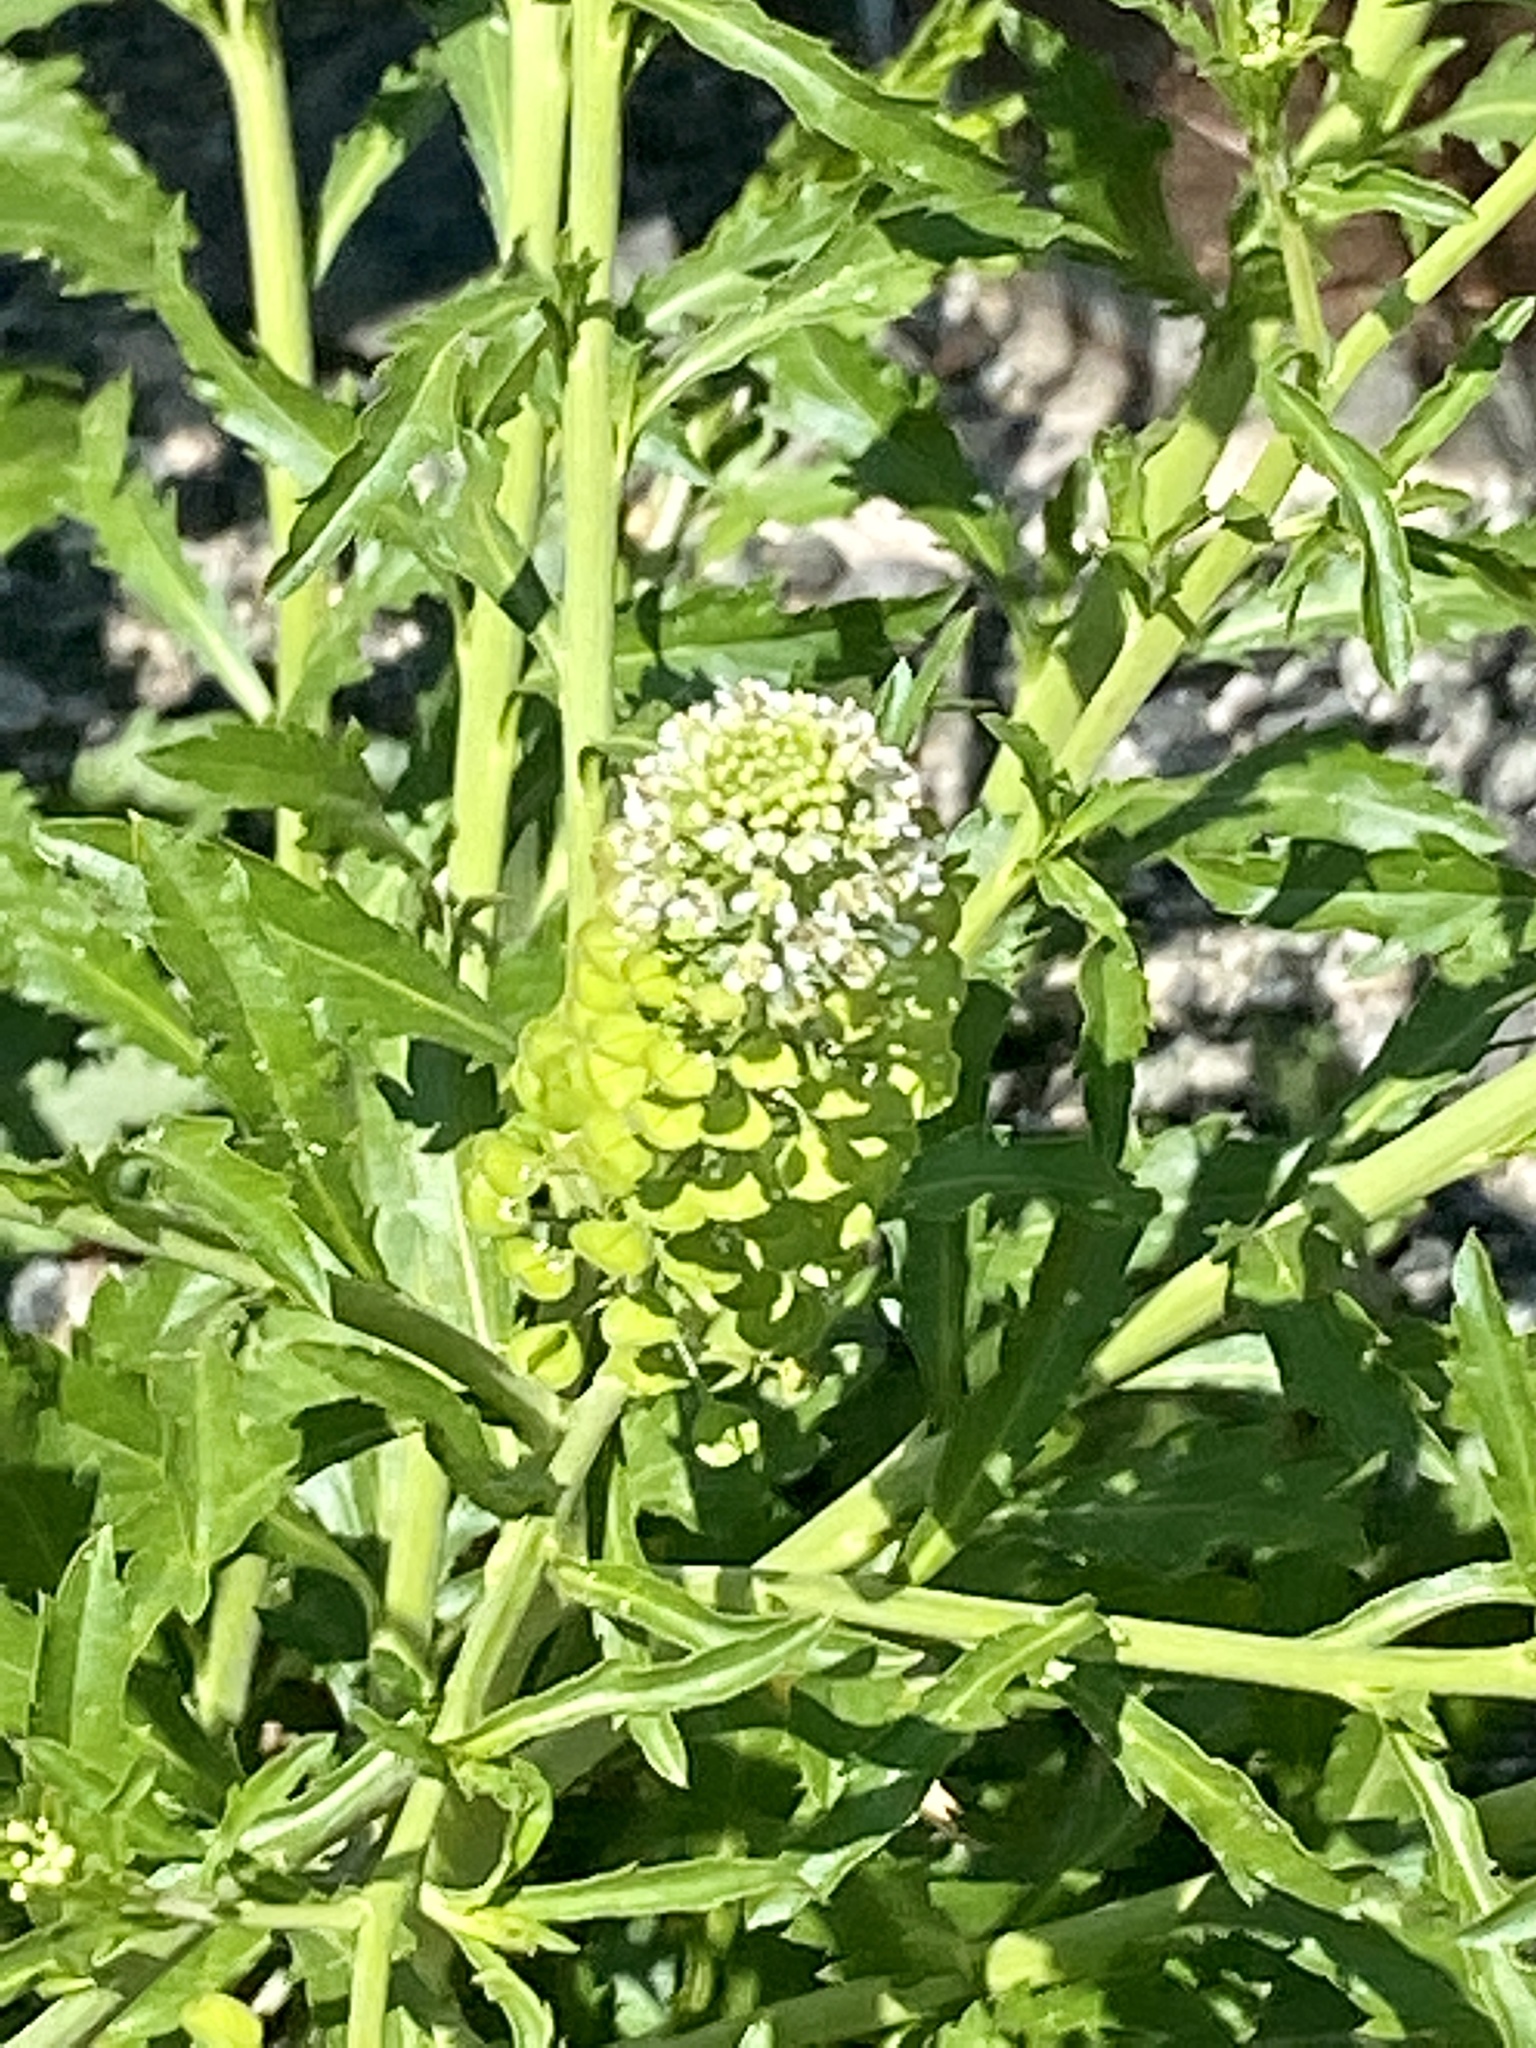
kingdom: Plantae
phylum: Tracheophyta
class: Magnoliopsida
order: Brassicales
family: Brassicaceae
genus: Lepidium
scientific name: Lepidium virginicum
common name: Least pepperwort
